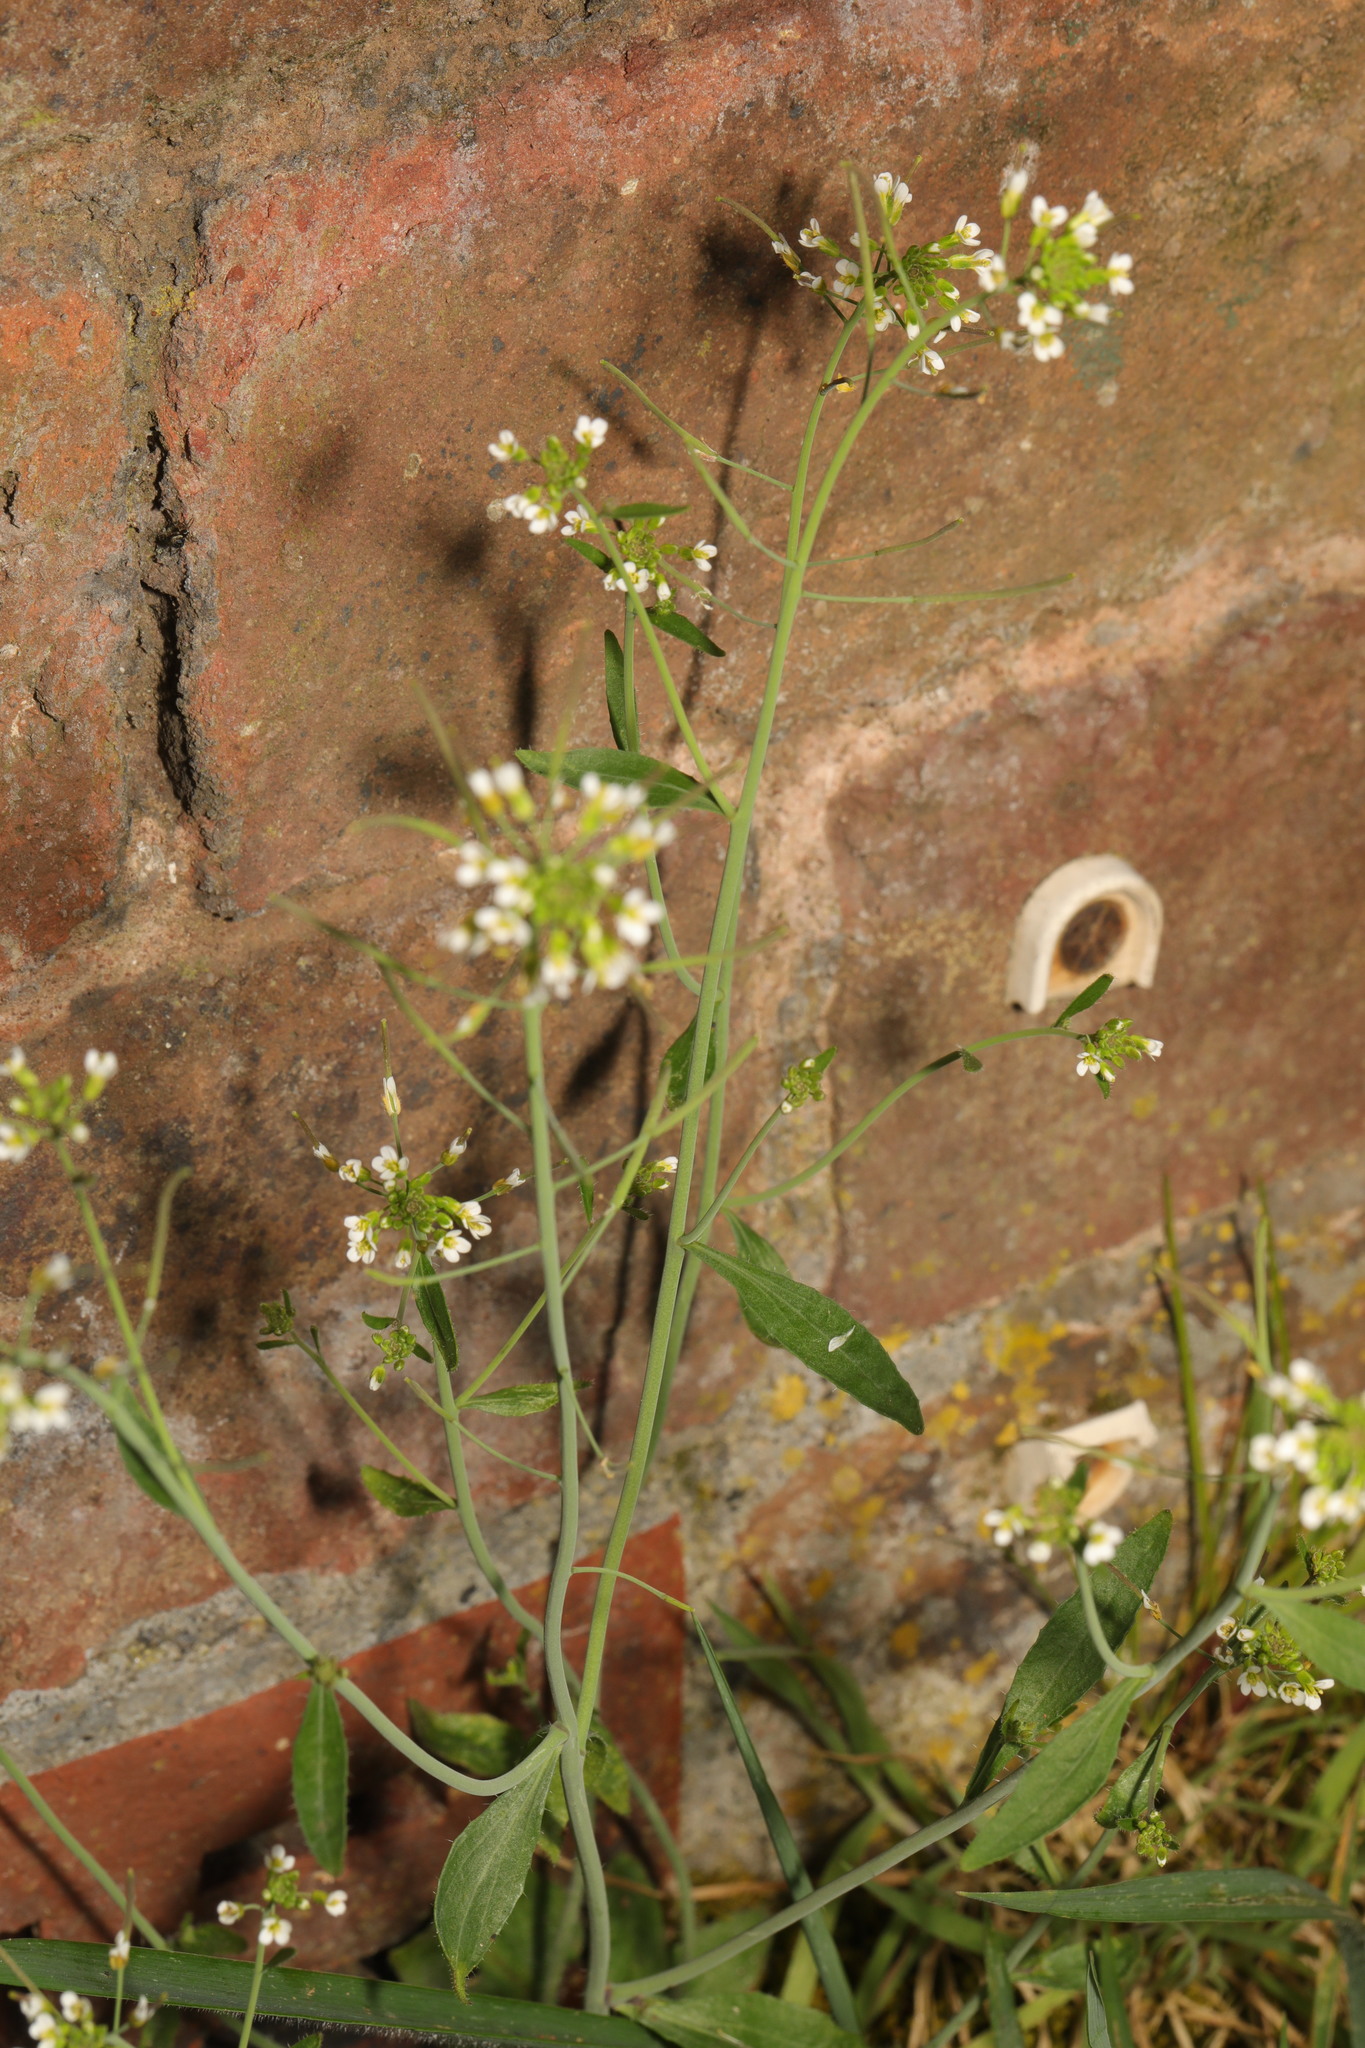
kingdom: Plantae
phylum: Tracheophyta
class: Magnoliopsida
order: Brassicales
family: Brassicaceae
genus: Arabidopsis
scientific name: Arabidopsis thaliana
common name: Thale cress
